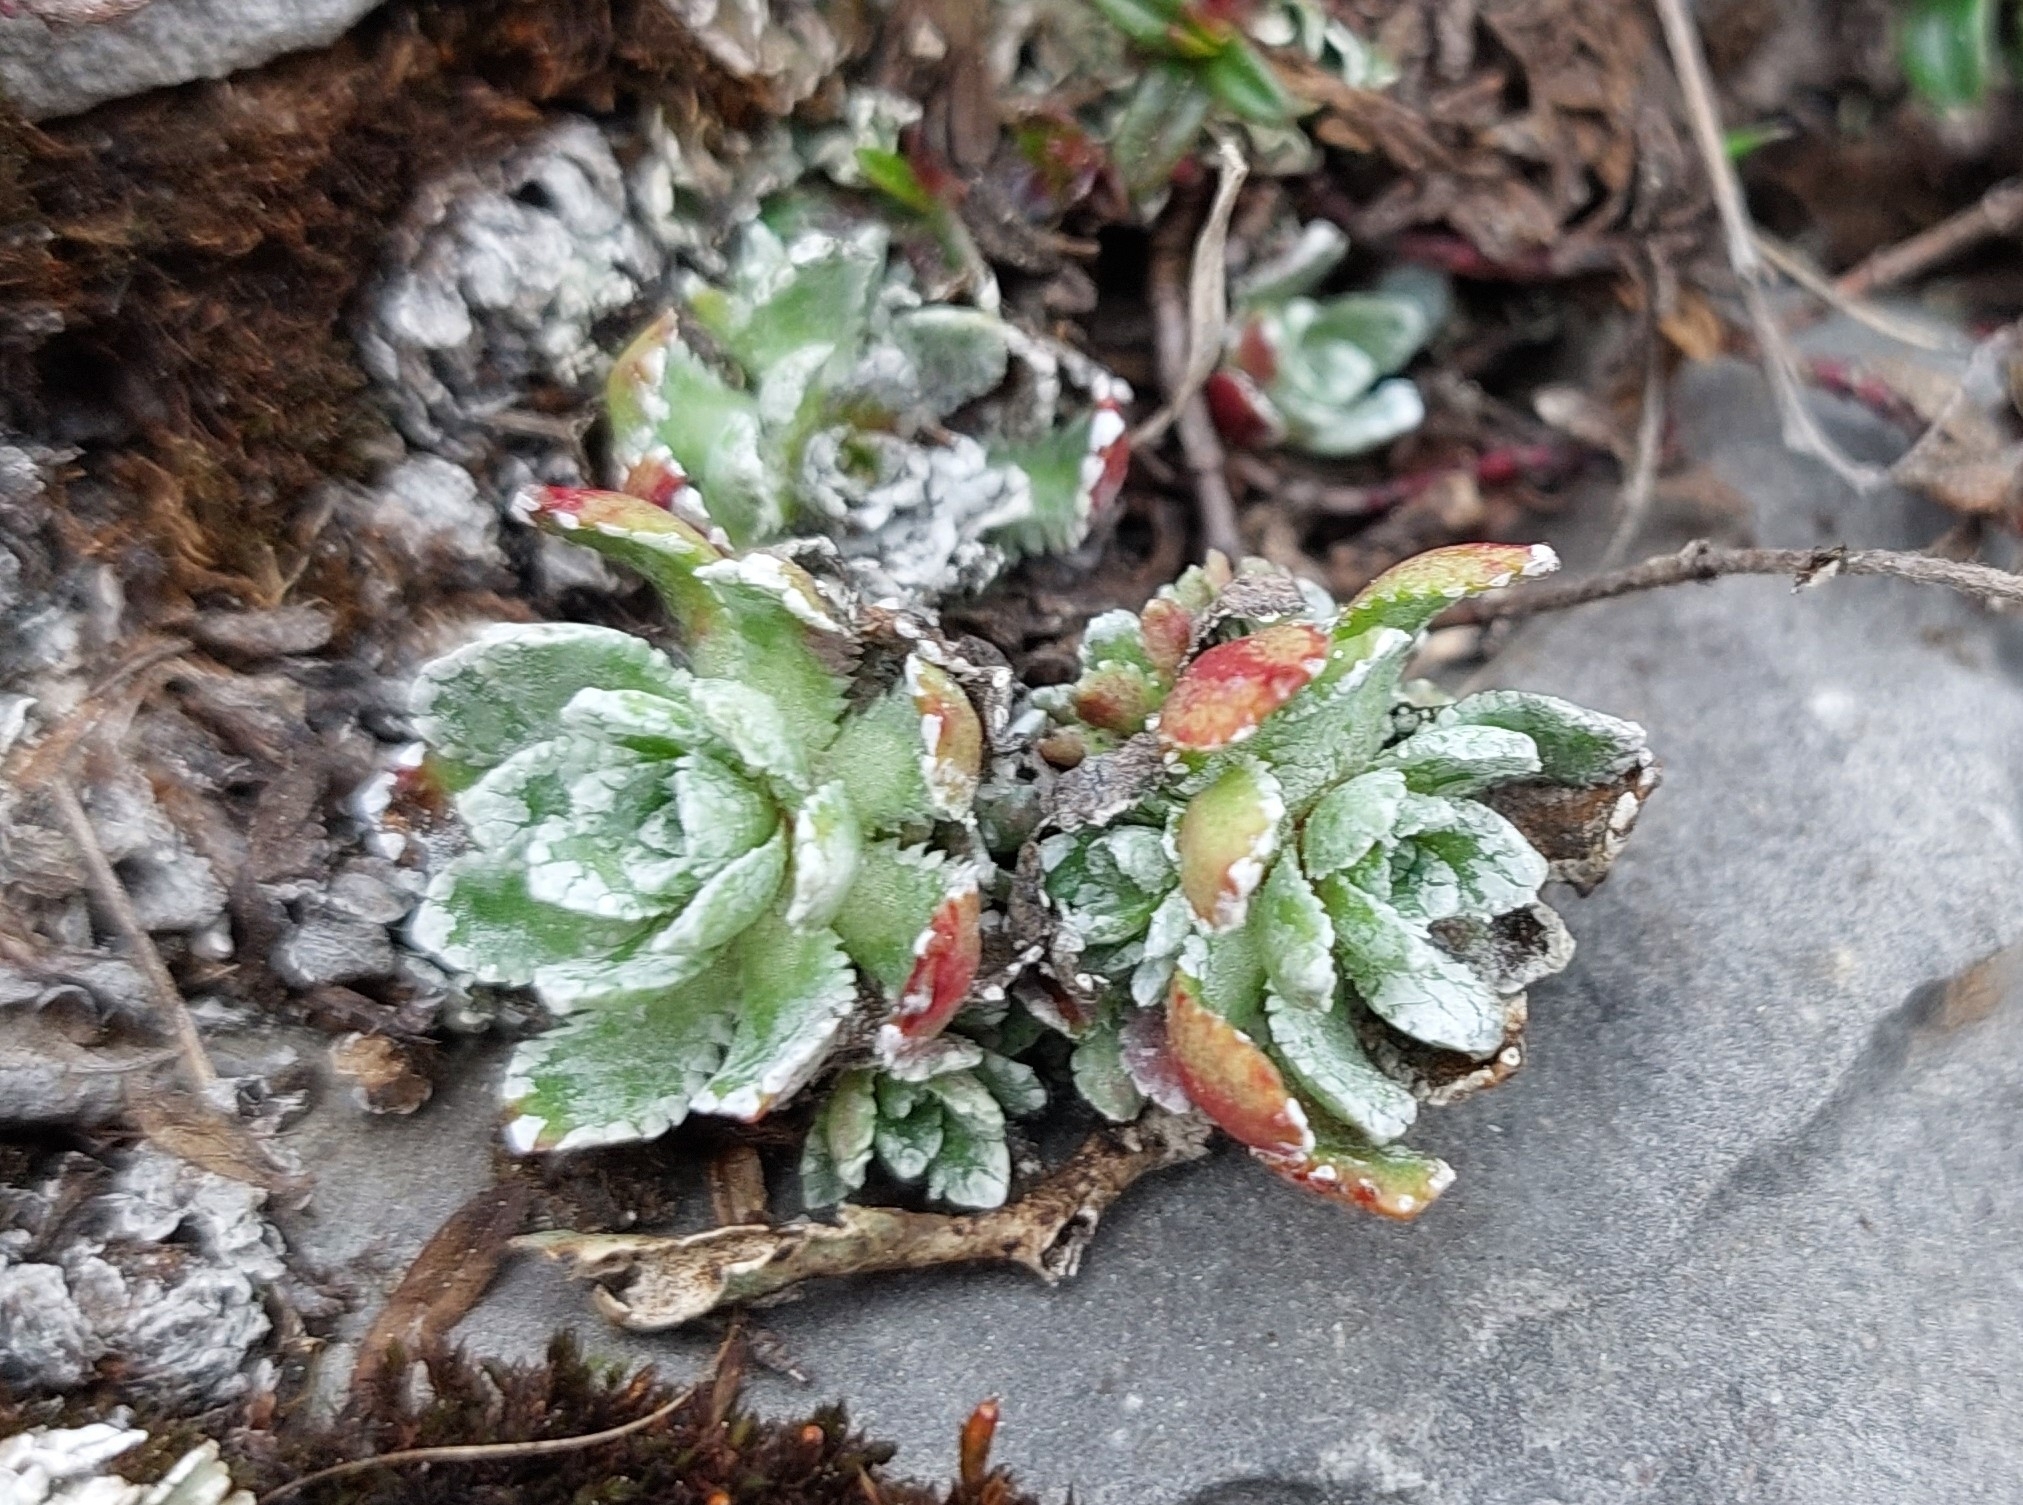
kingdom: Plantae
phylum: Tracheophyta
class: Magnoliopsida
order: Saxifragales
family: Saxifragaceae
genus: Saxifraga
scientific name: Saxifraga paniculata
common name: Livelong saxifrage
